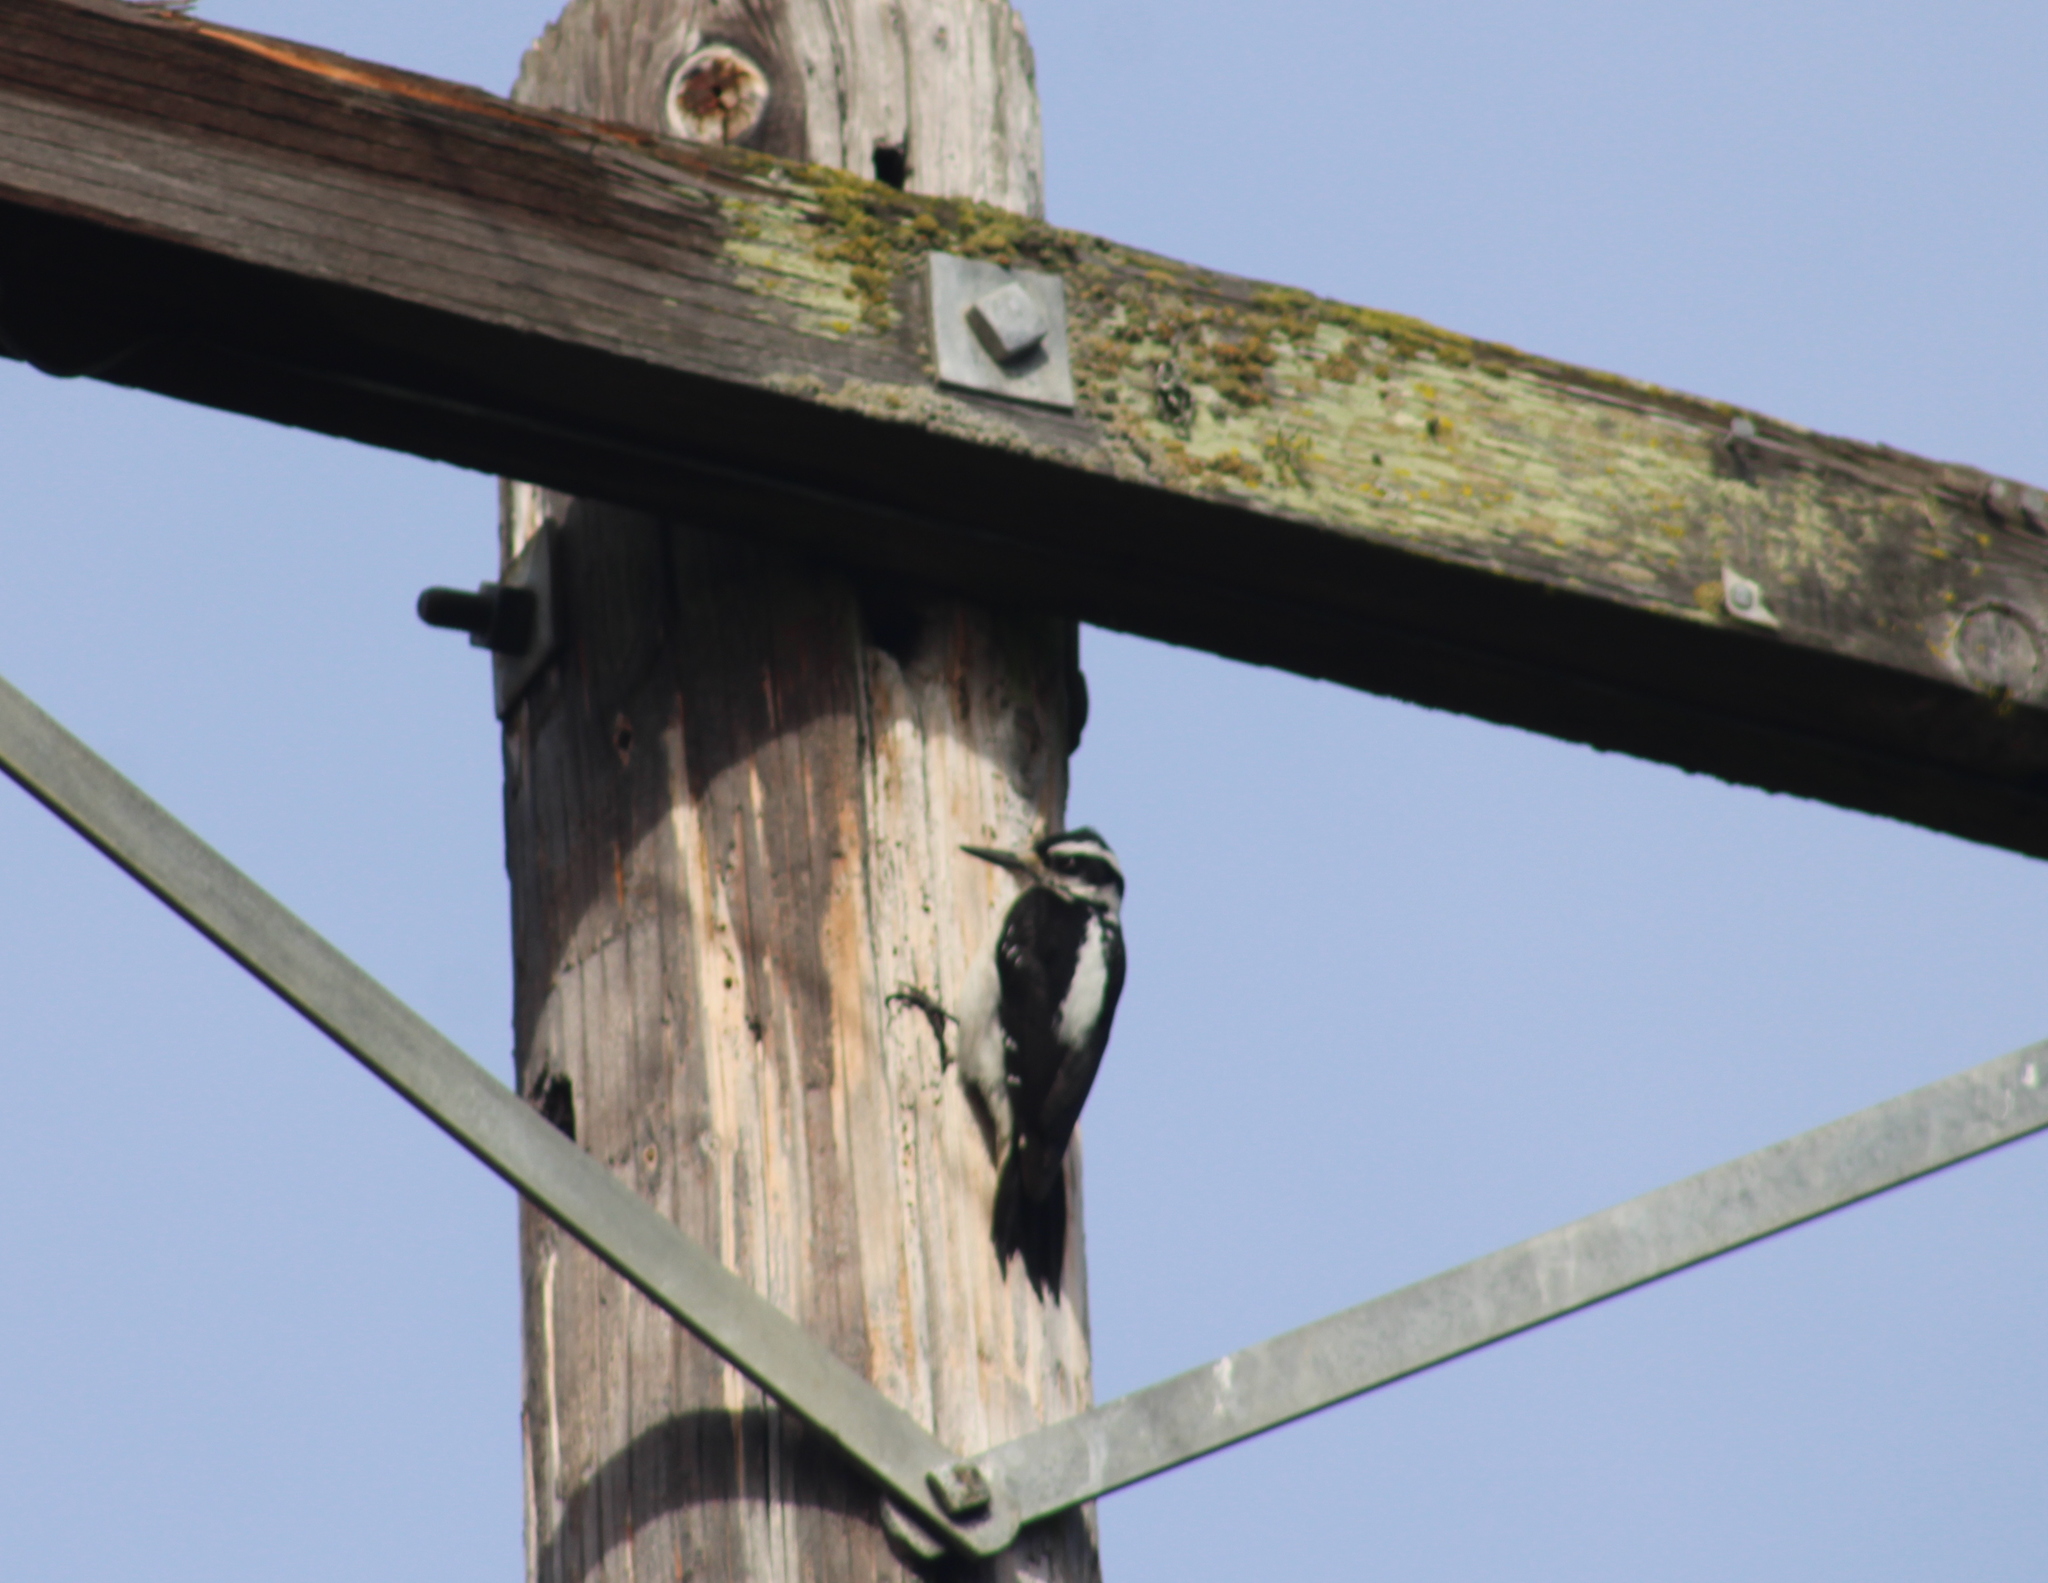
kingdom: Animalia
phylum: Chordata
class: Aves
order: Piciformes
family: Picidae
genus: Leuconotopicus
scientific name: Leuconotopicus villosus
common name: Hairy woodpecker
